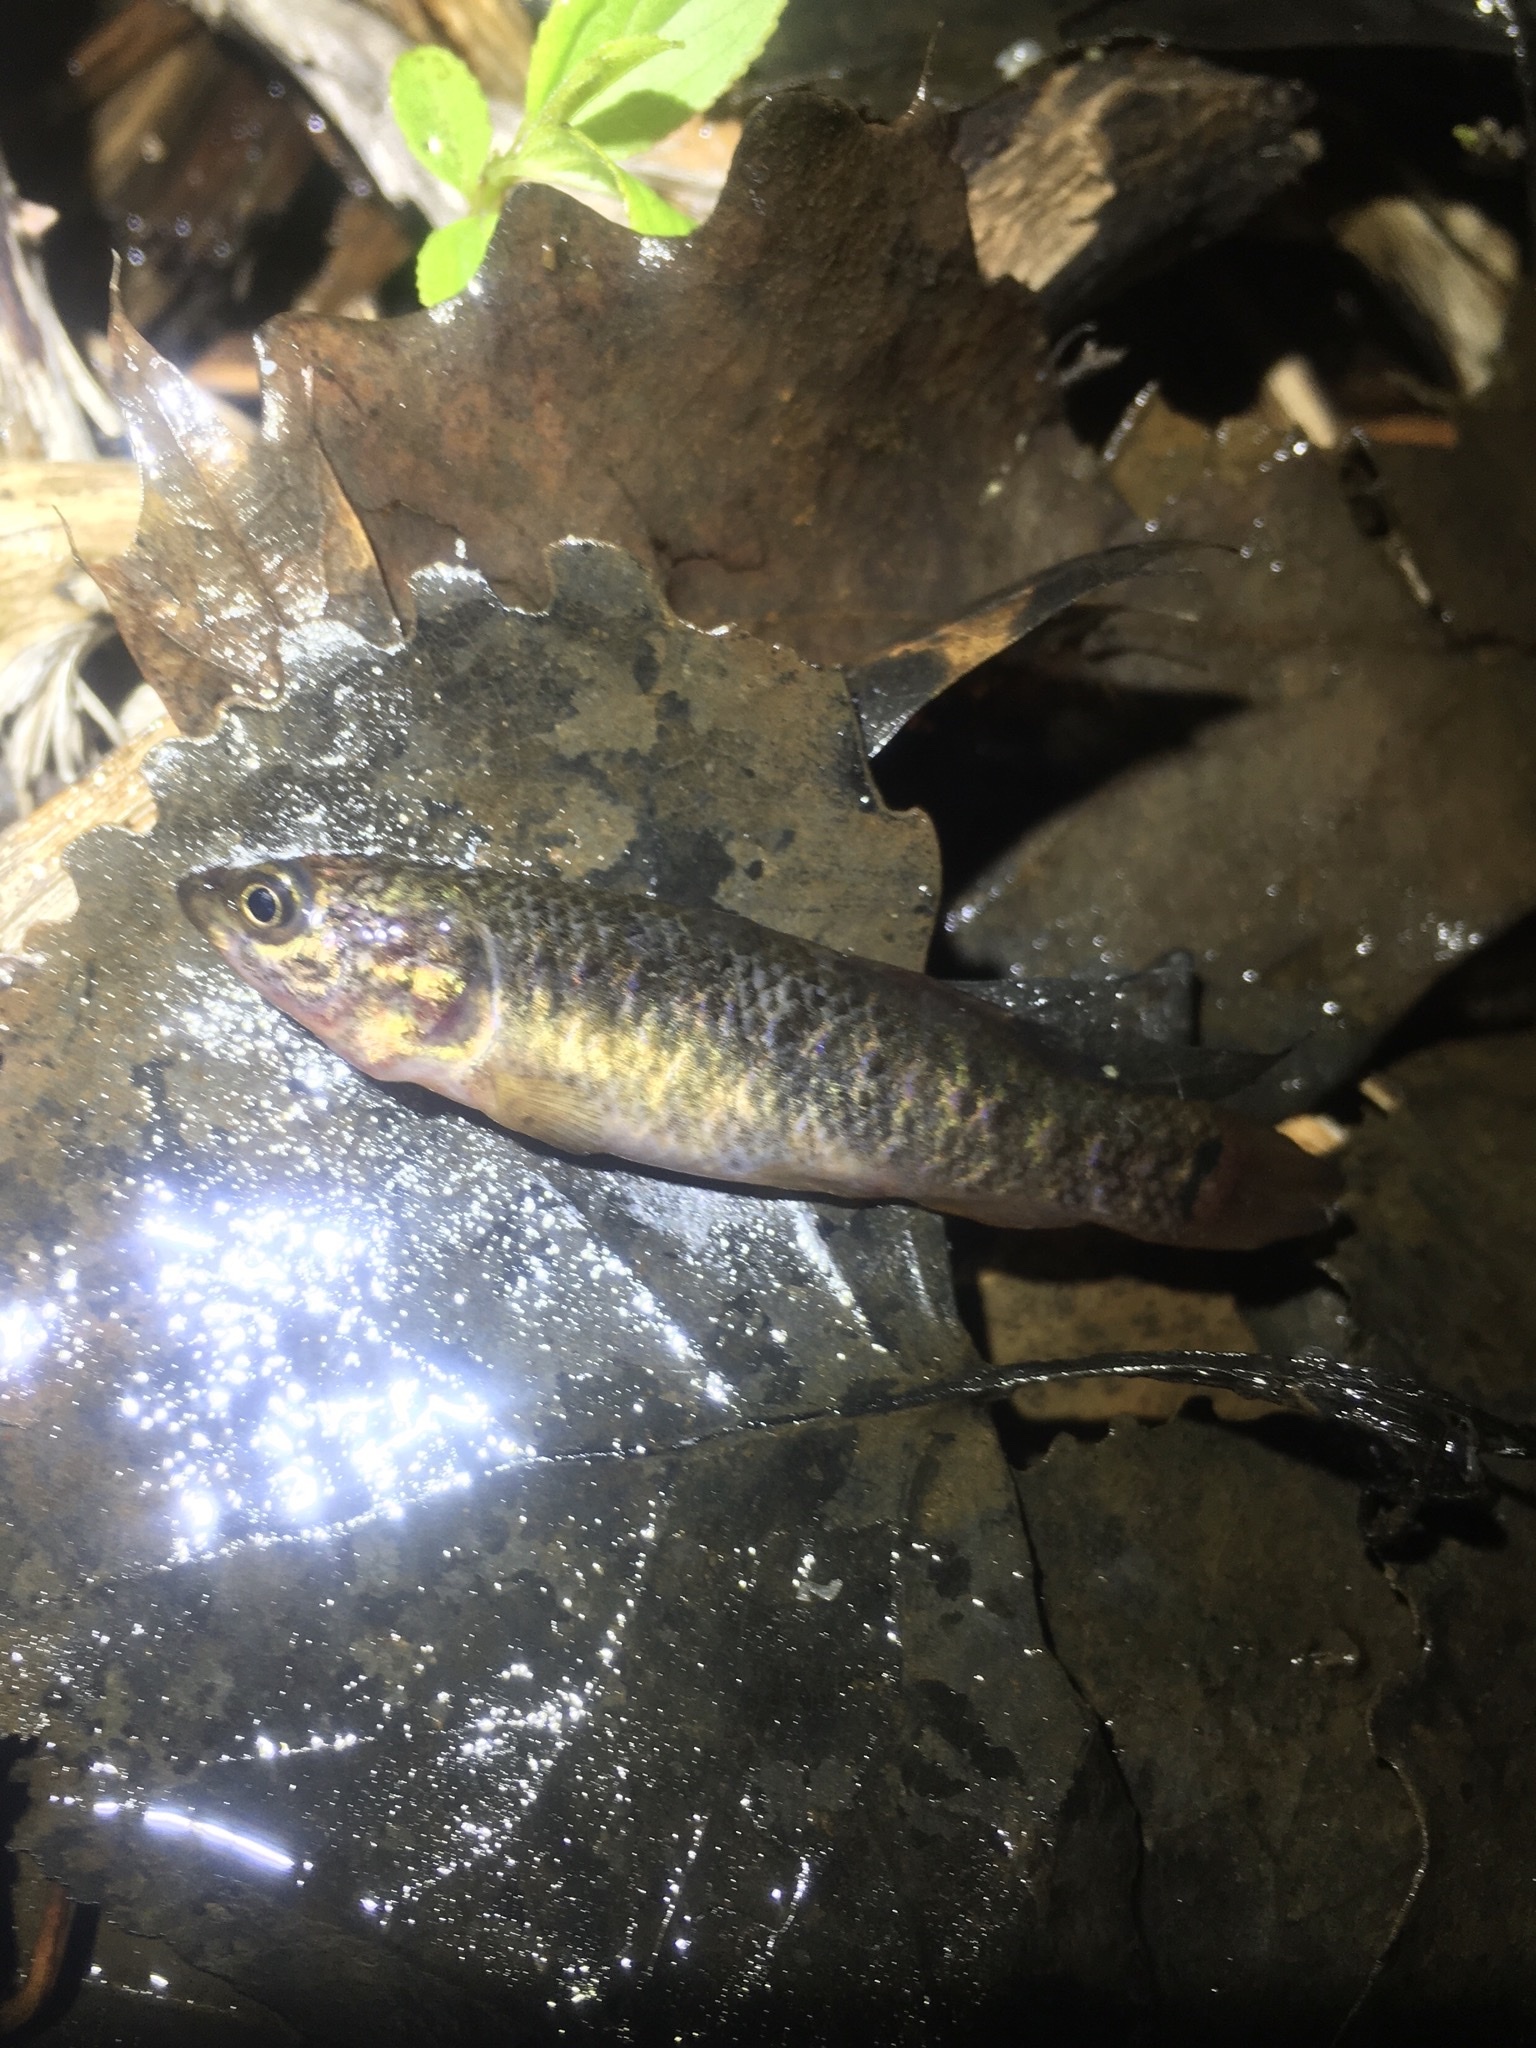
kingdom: Animalia
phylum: Chordata
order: Esociformes
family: Umbridae
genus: Umbra
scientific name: Umbra limi
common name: Central mudminnow
